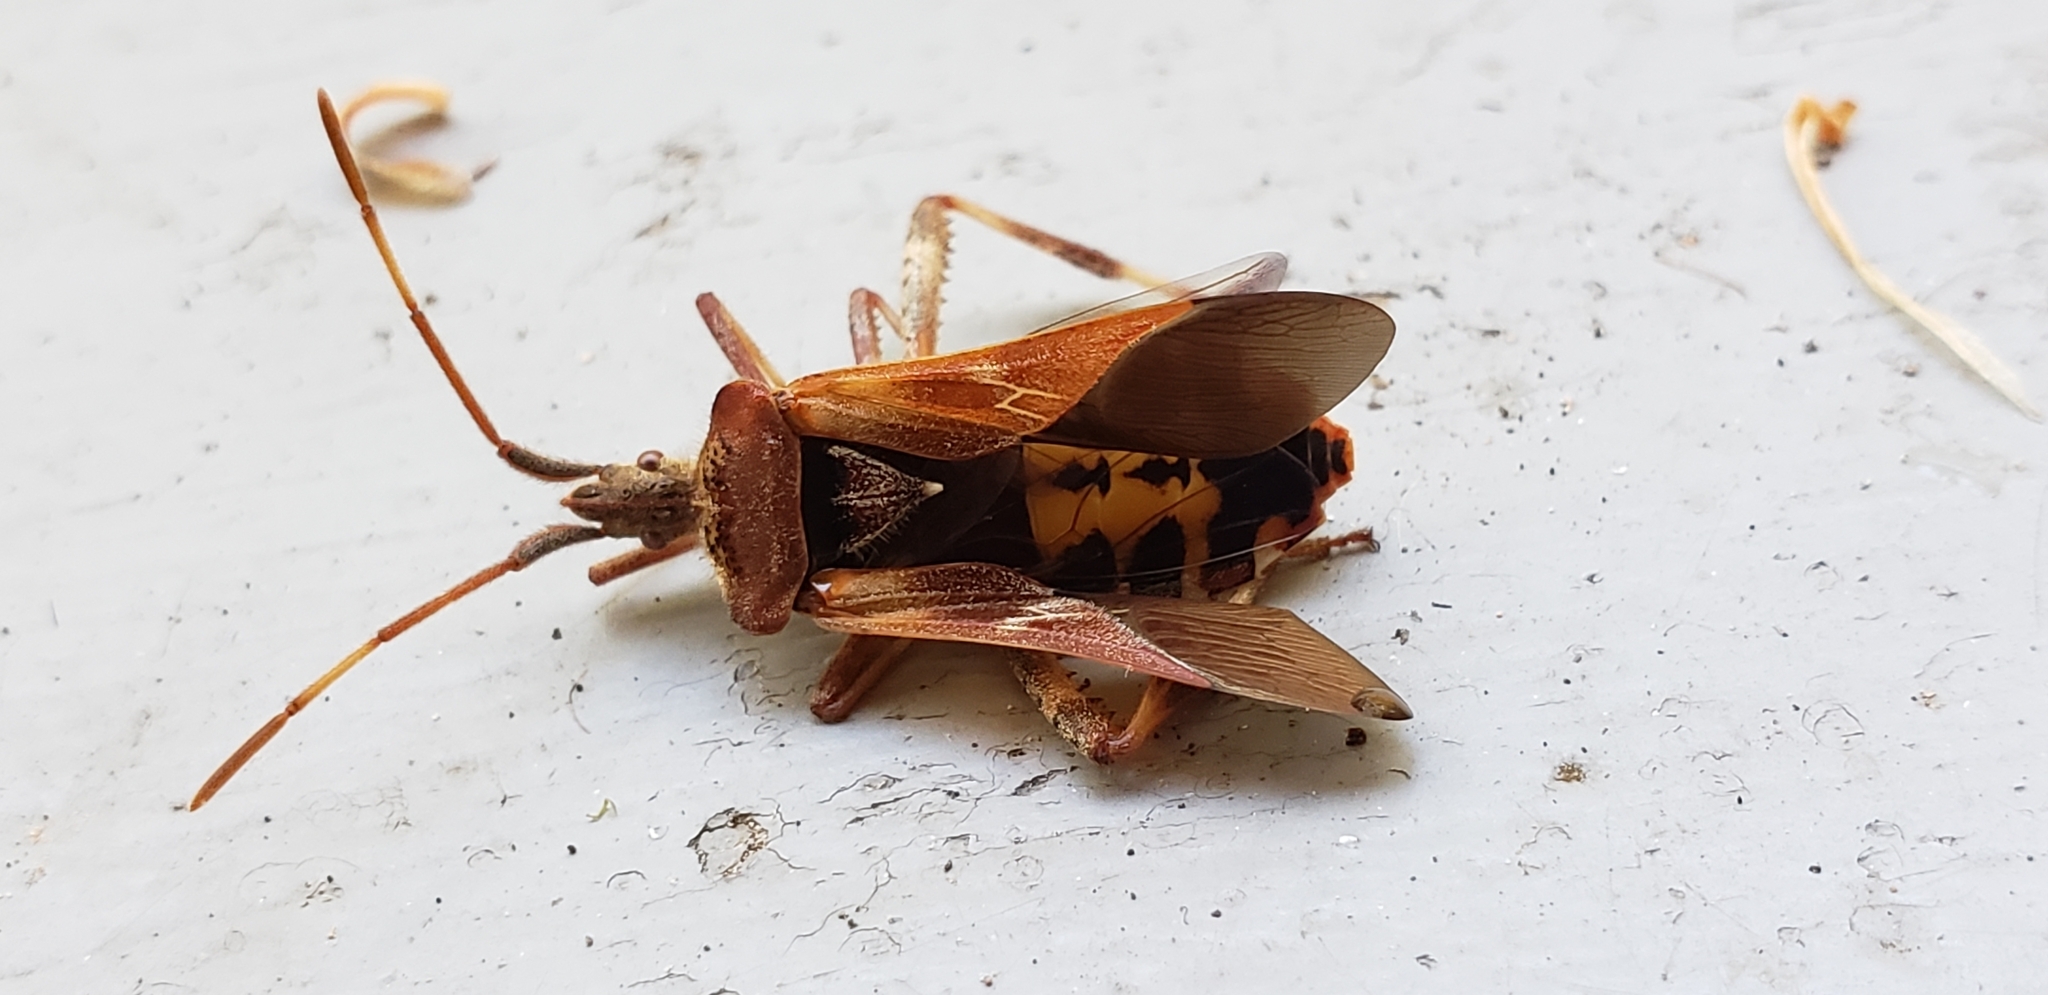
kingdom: Animalia
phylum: Arthropoda
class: Insecta
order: Hemiptera
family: Coreidae
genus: Leptoglossus
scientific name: Leptoglossus occidentalis
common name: Western conifer-seed bug
